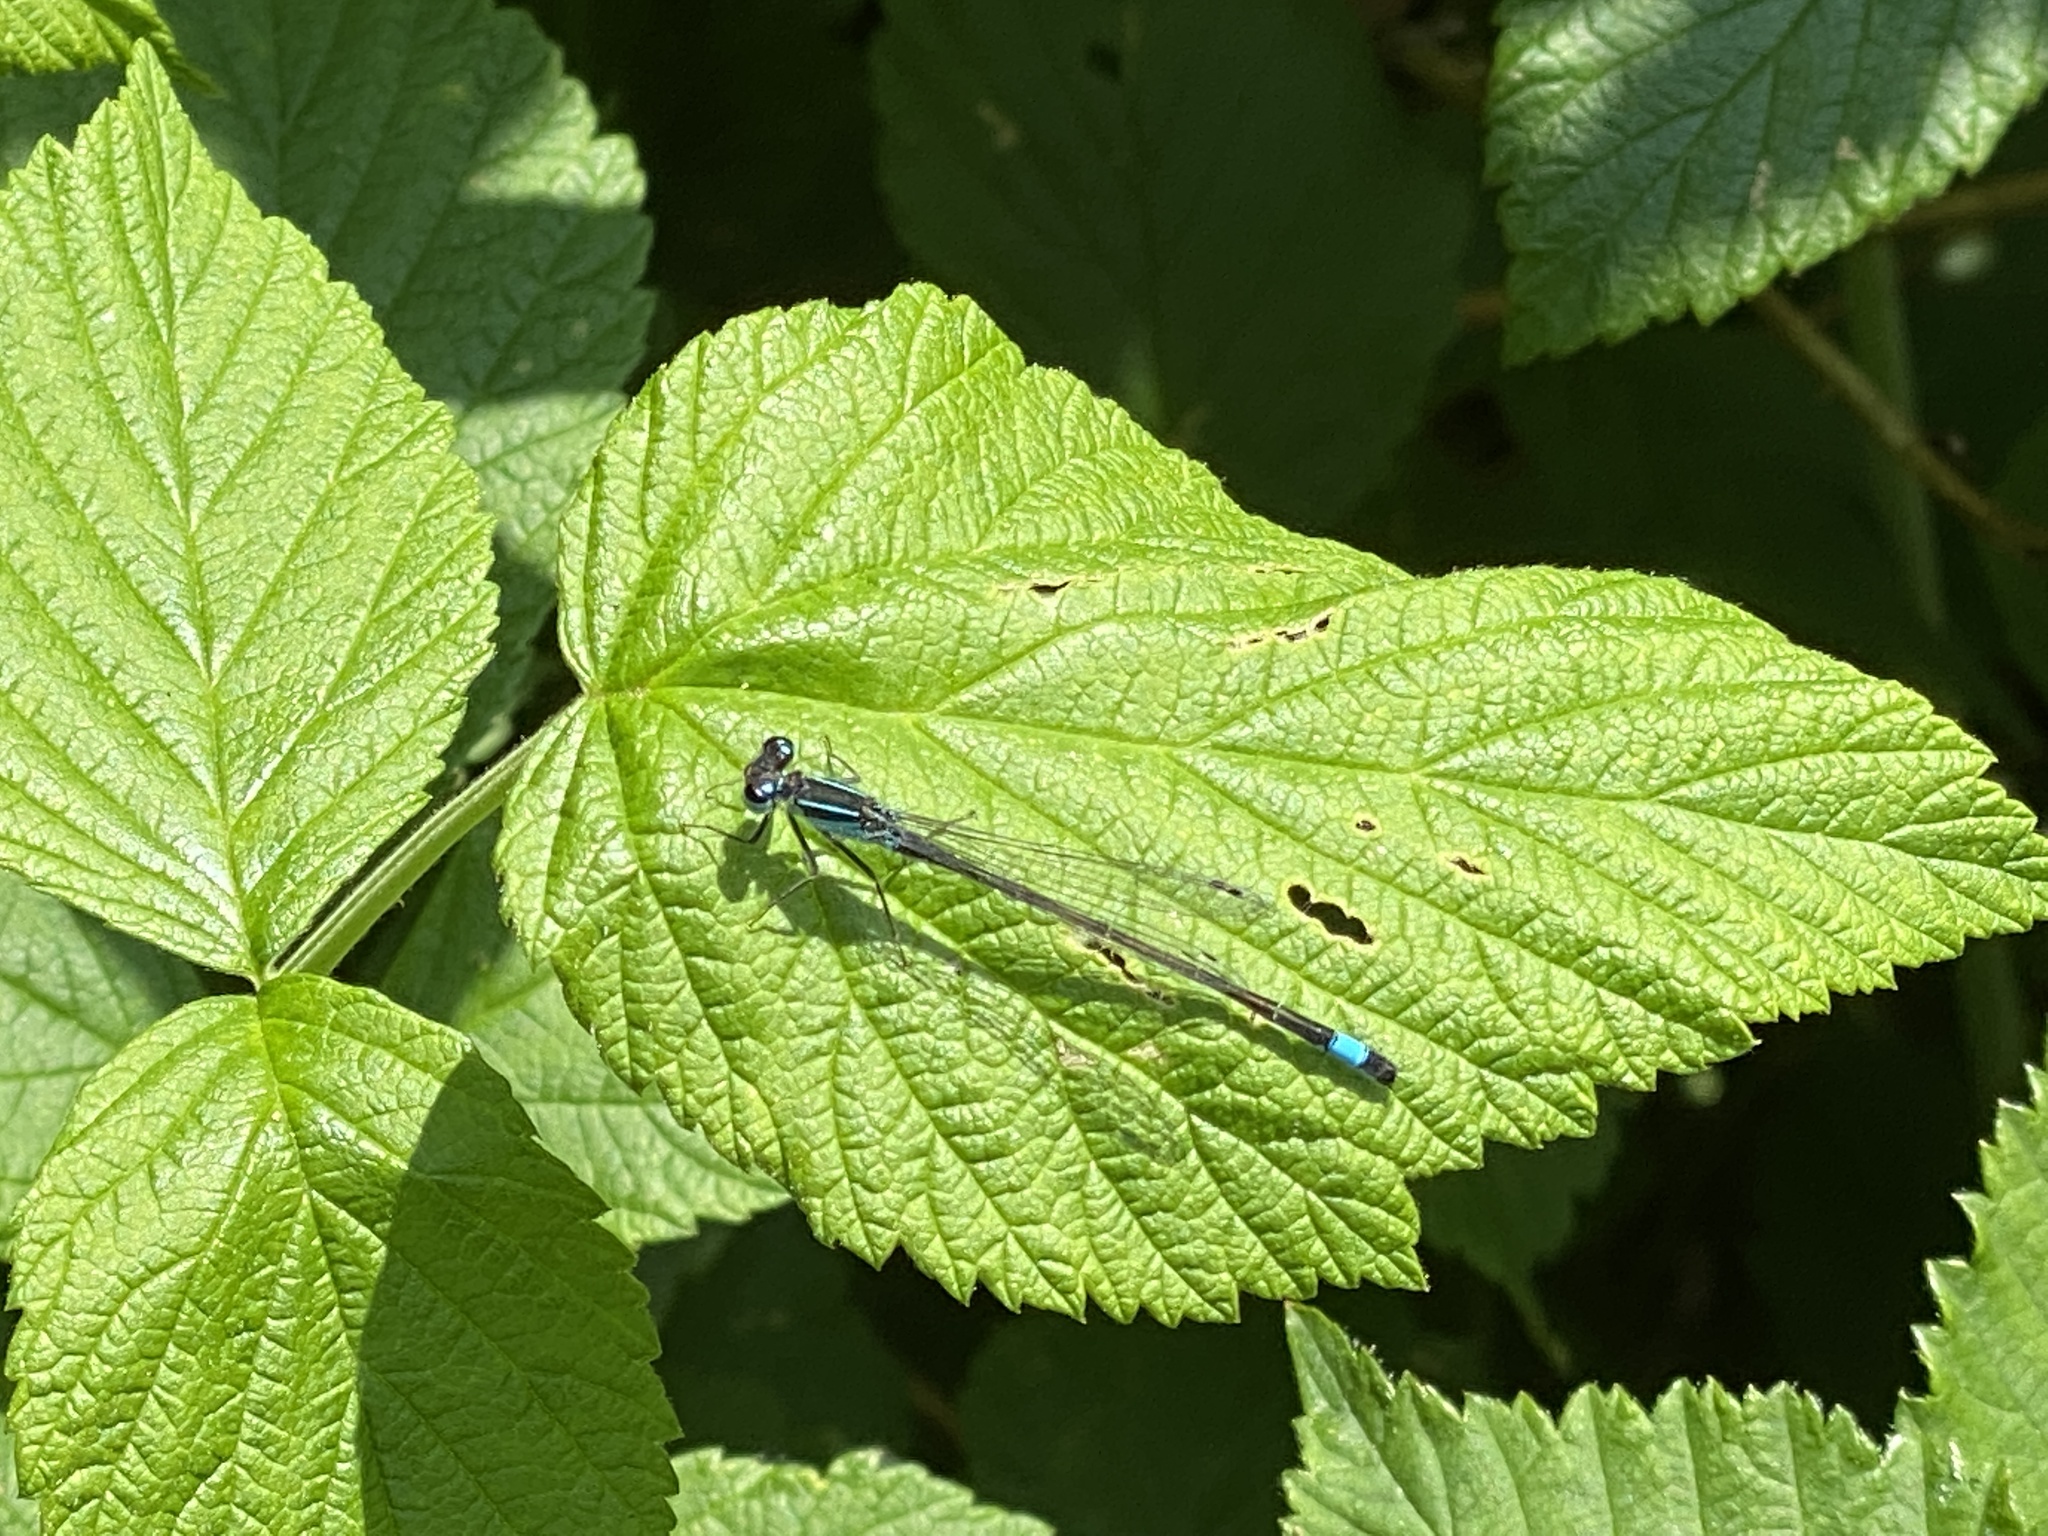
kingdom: Animalia
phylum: Arthropoda
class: Insecta
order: Odonata
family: Coenagrionidae
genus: Ischnura
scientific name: Ischnura elegans
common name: Blue-tailed damselfly
